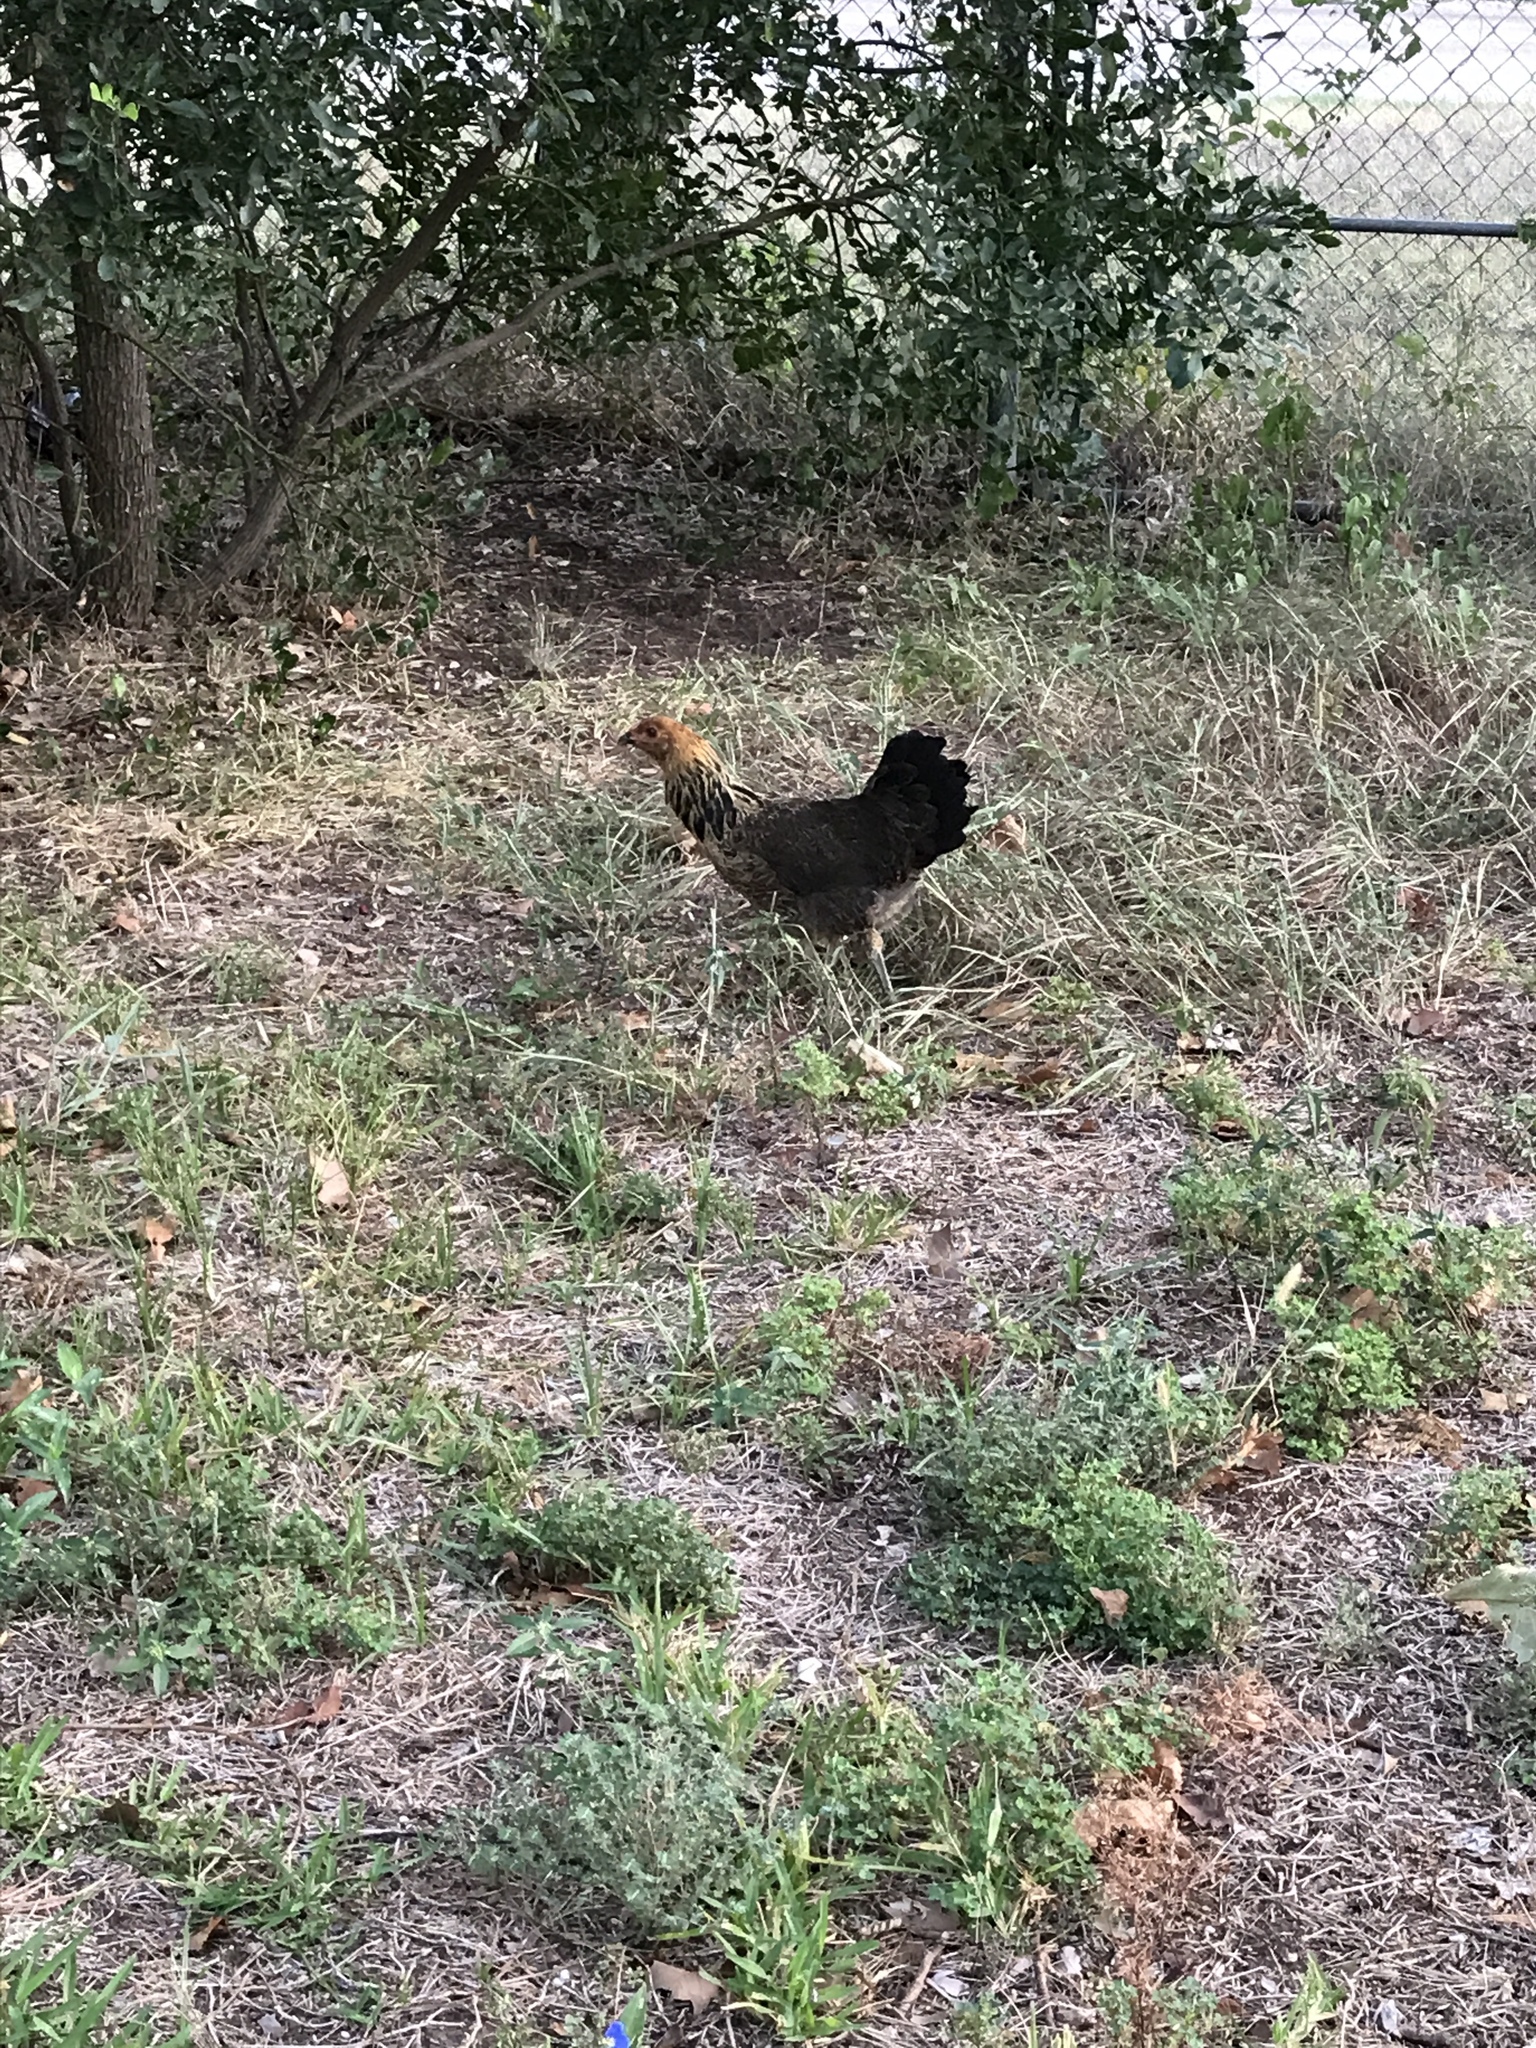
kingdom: Animalia
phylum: Chordata
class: Aves
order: Galliformes
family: Phasianidae
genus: Gallus
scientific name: Gallus gallus
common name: Red junglefowl
